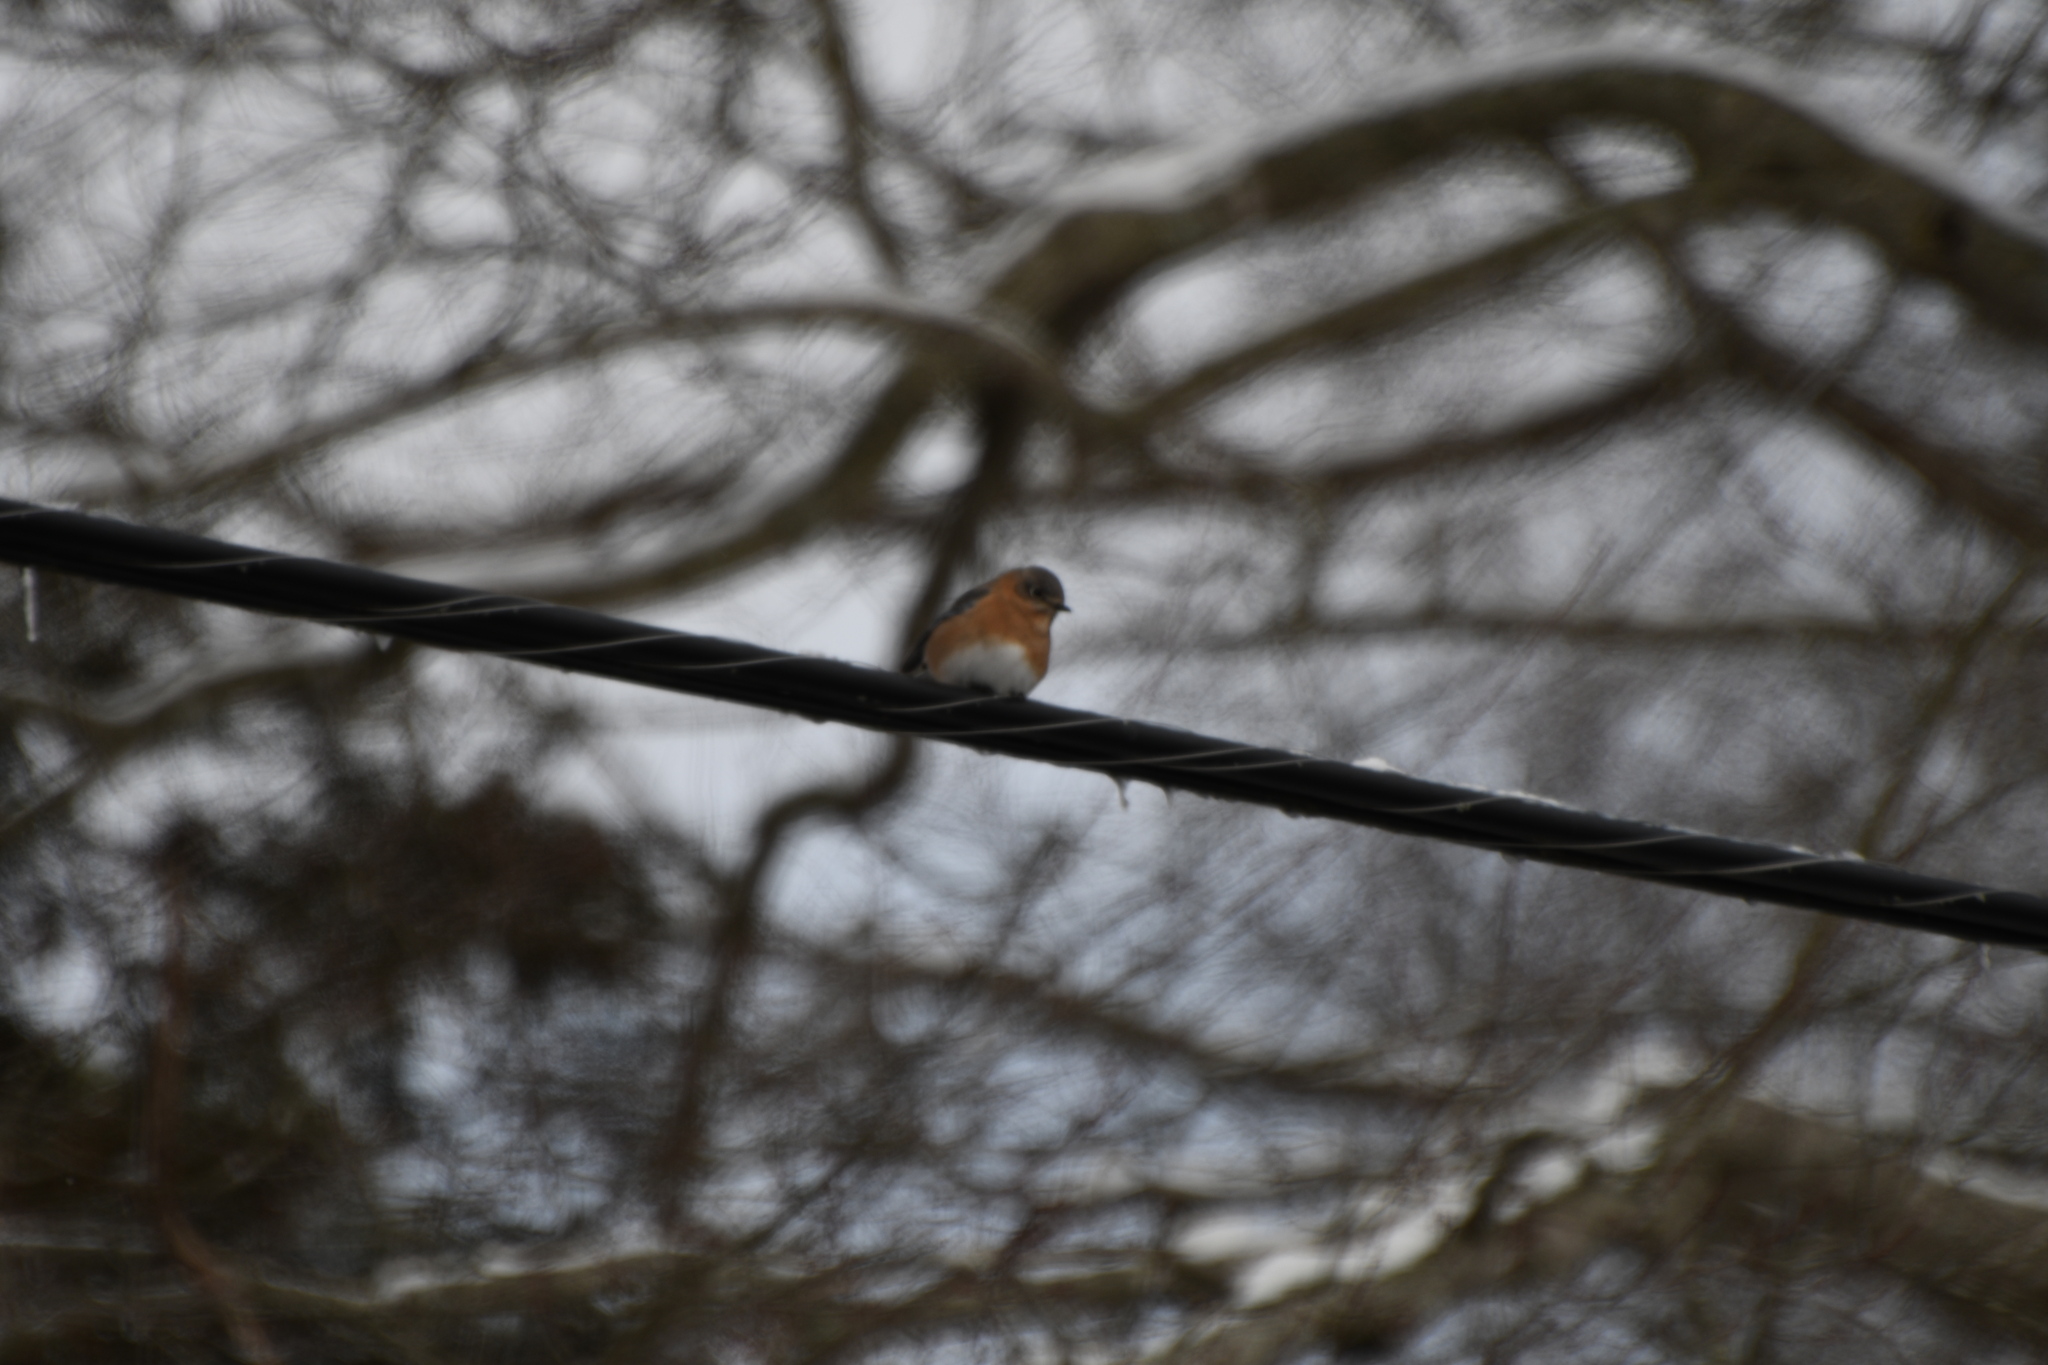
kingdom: Animalia
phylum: Chordata
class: Aves
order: Passeriformes
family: Turdidae
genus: Sialia
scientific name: Sialia sialis
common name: Eastern bluebird
